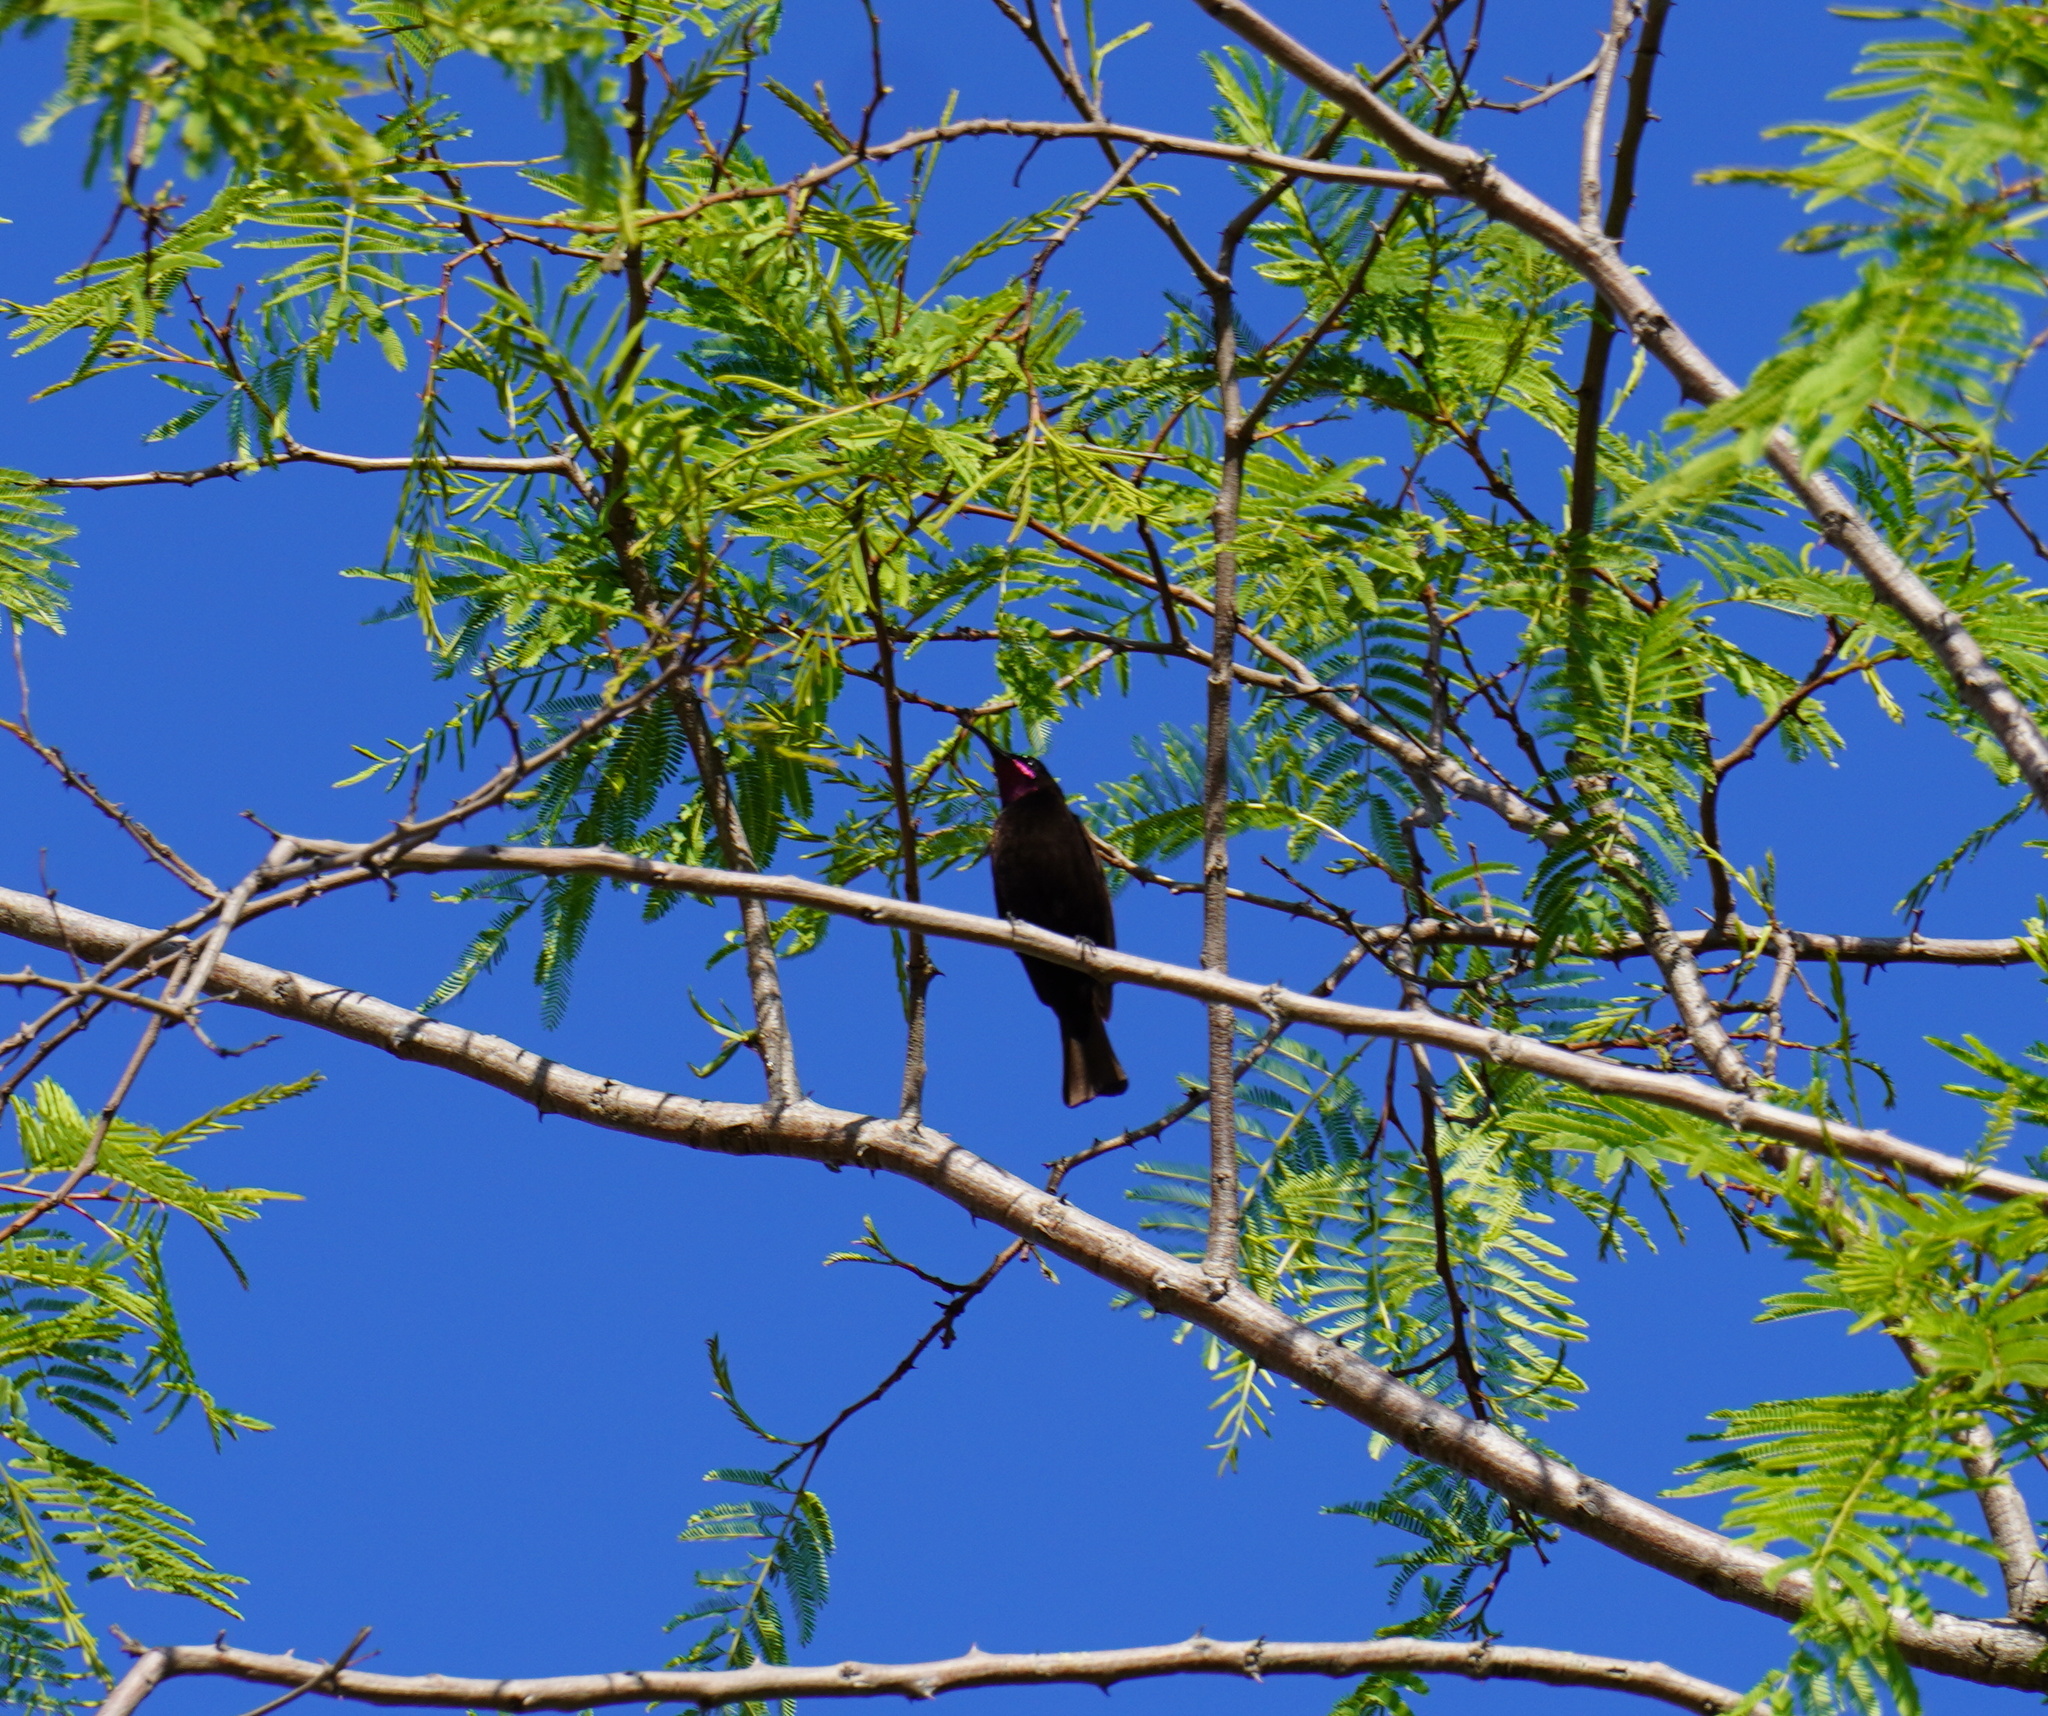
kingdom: Animalia
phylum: Chordata
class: Aves
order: Passeriformes
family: Nectariniidae
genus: Chalcomitra
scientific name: Chalcomitra amethystina
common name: Amethyst sunbird
